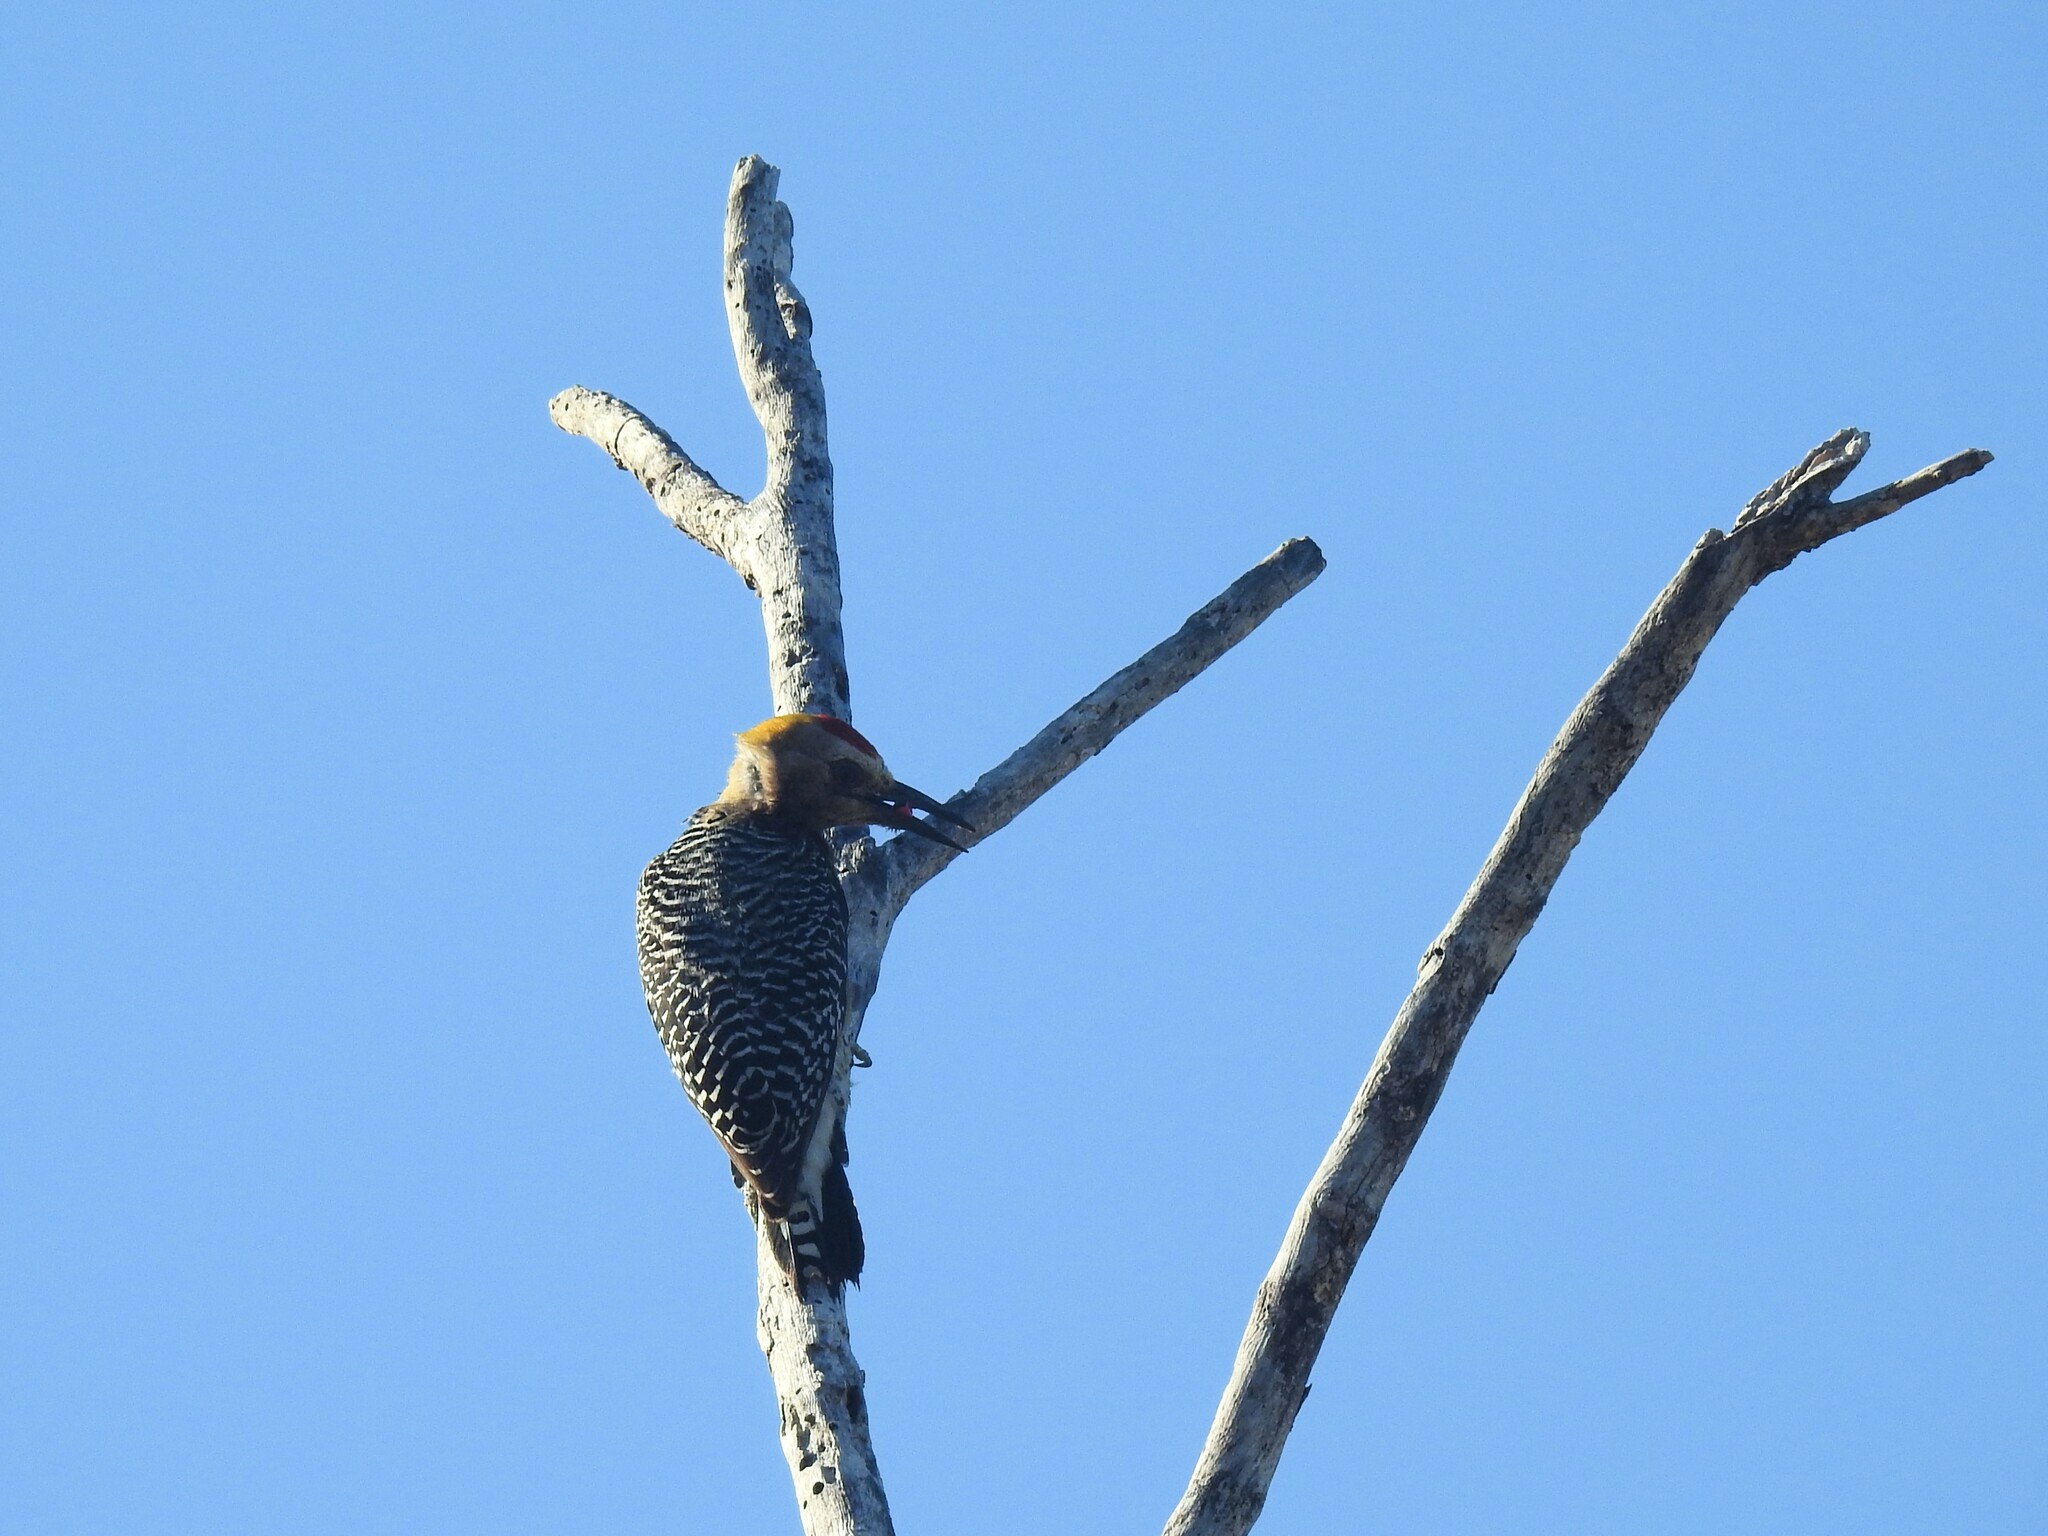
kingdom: Animalia
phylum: Chordata
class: Aves
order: Piciformes
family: Picidae
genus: Melanerpes
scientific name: Melanerpes hoffmannii
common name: Hoffmann's woodpecker
